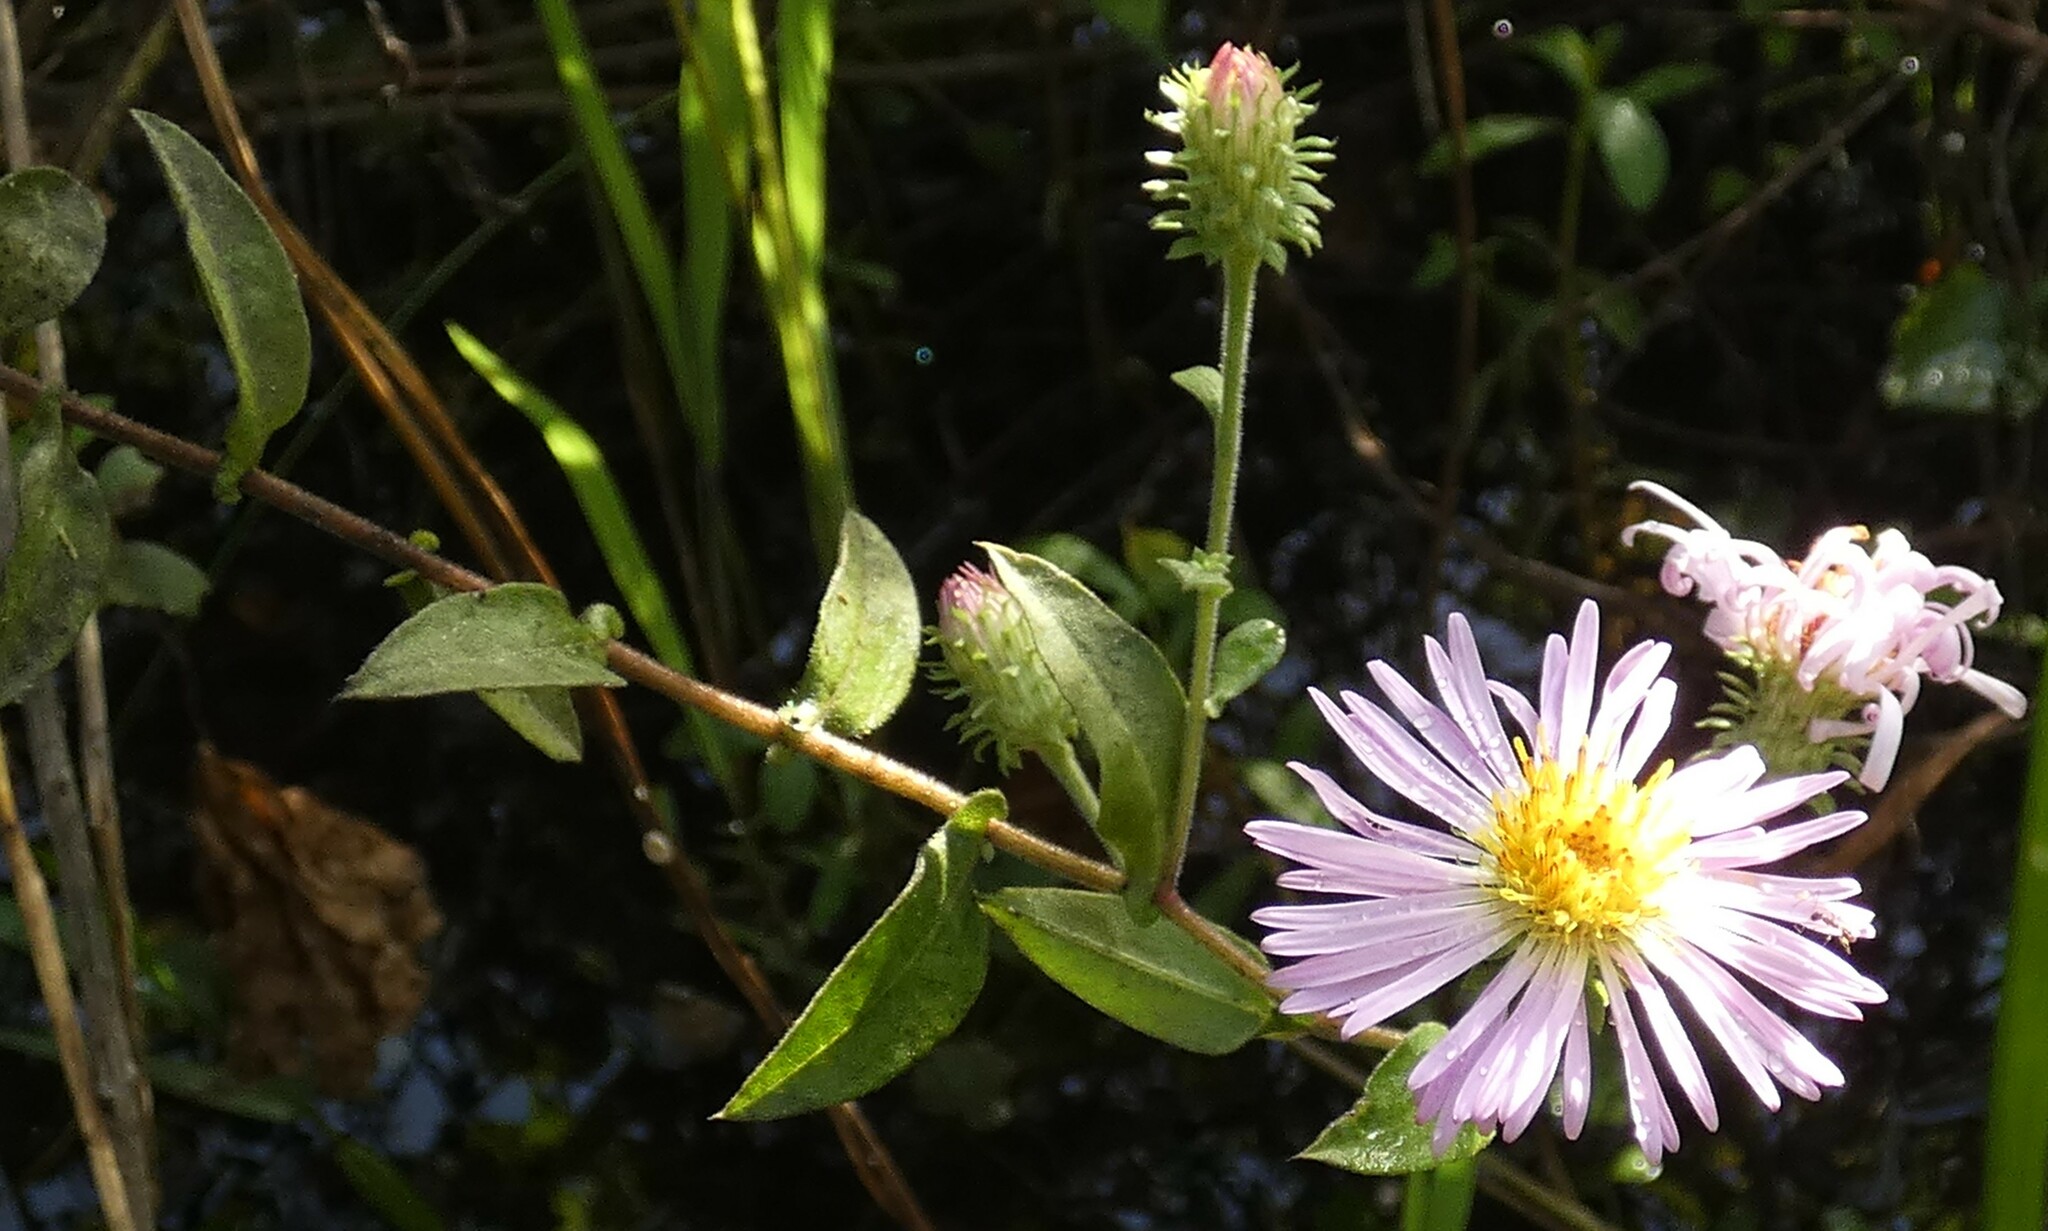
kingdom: Plantae
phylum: Tracheophyta
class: Magnoliopsida
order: Asterales
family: Asteraceae
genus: Ampelaster
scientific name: Ampelaster carolinianus
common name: Climbing aster
